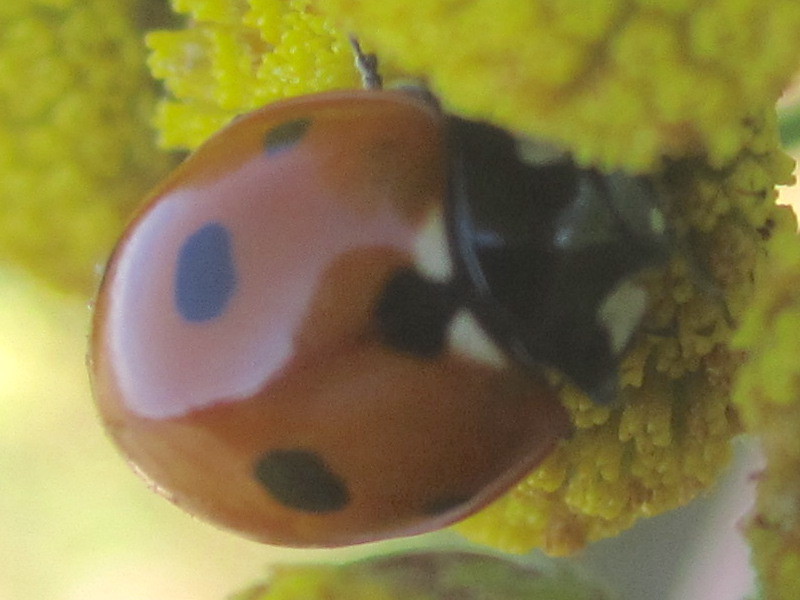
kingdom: Animalia
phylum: Arthropoda
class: Insecta
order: Coleoptera
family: Coccinellidae
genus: Coccinella
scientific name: Coccinella septempunctata
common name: Sevenspotted lady beetle
